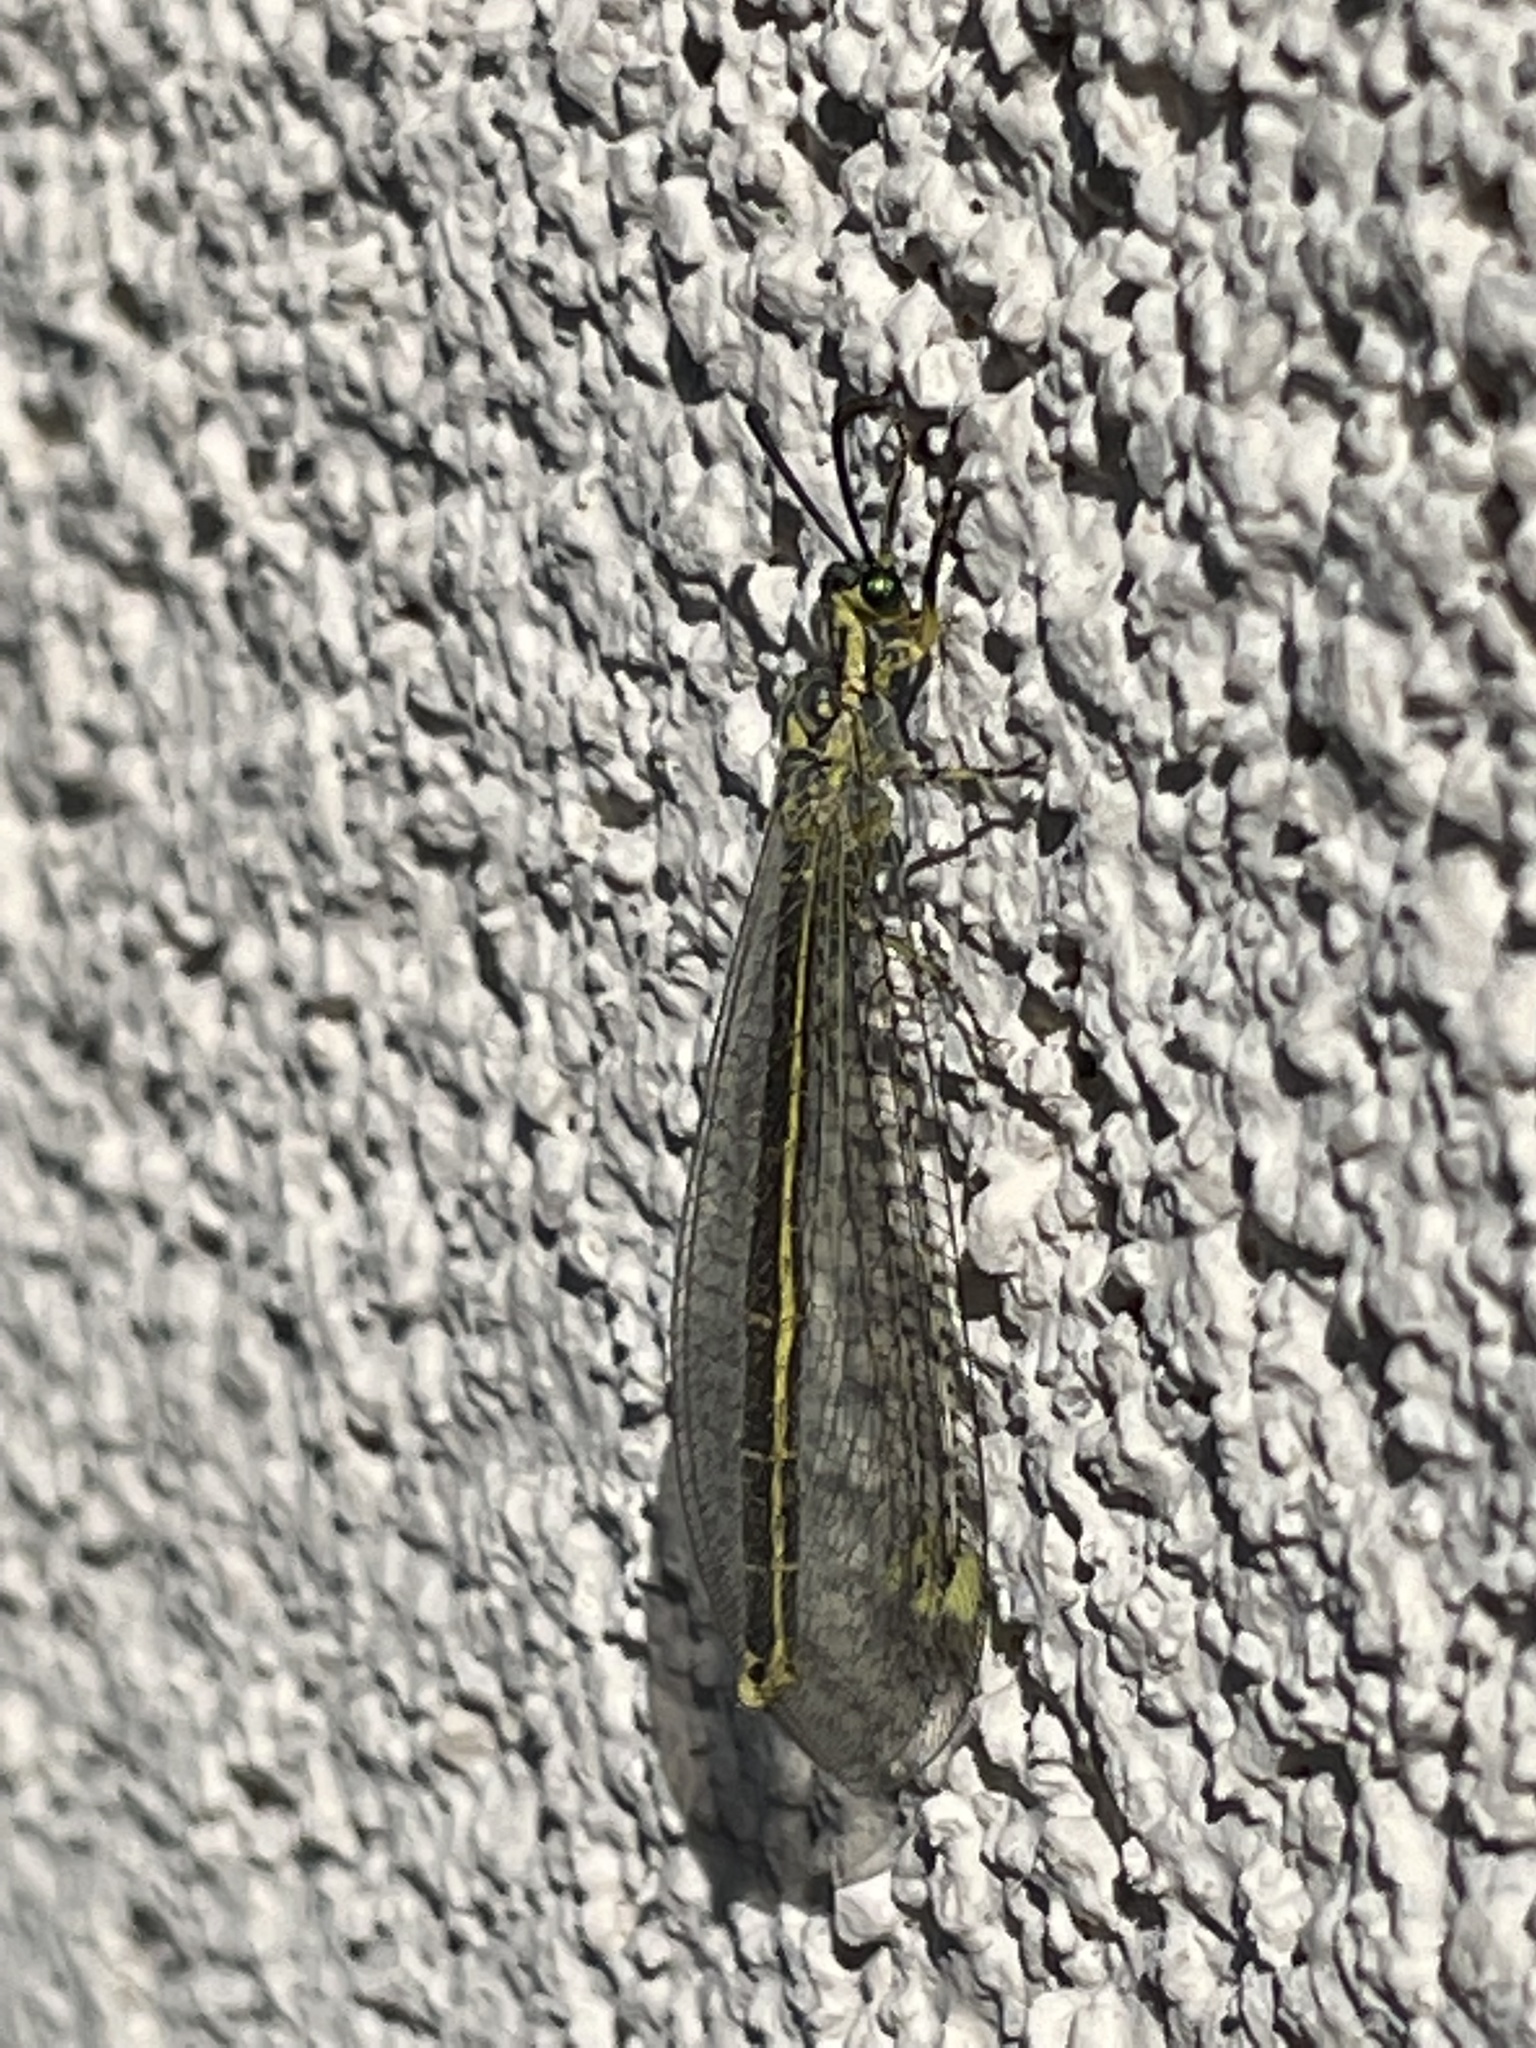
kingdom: Animalia
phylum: Arthropoda
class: Insecta
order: Neuroptera
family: Myrmeleontidae
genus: Scotoleon
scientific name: Scotoleon nigrilabris
